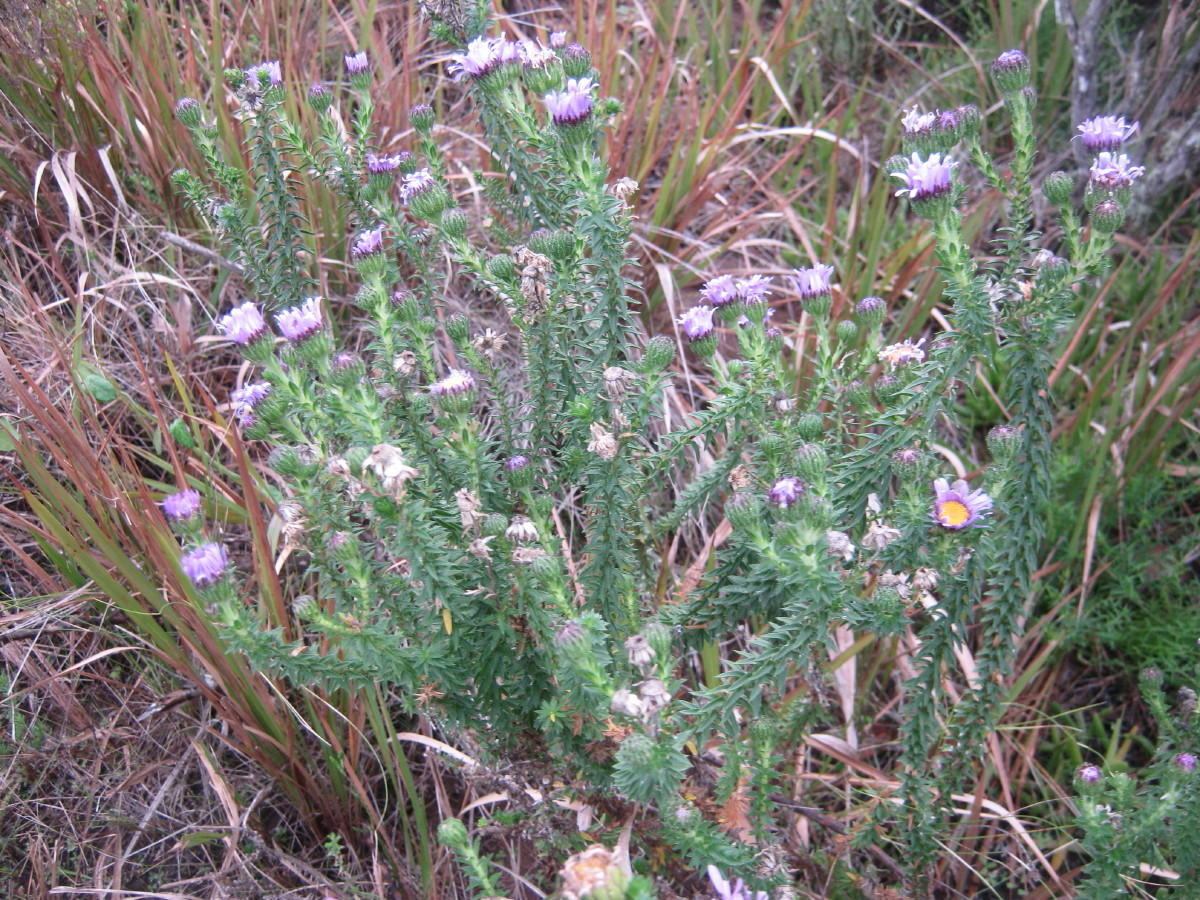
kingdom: Plantae
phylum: Tracheophyta
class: Magnoliopsida
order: Asterales
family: Asteraceae
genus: Felicia
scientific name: Felicia echinata
